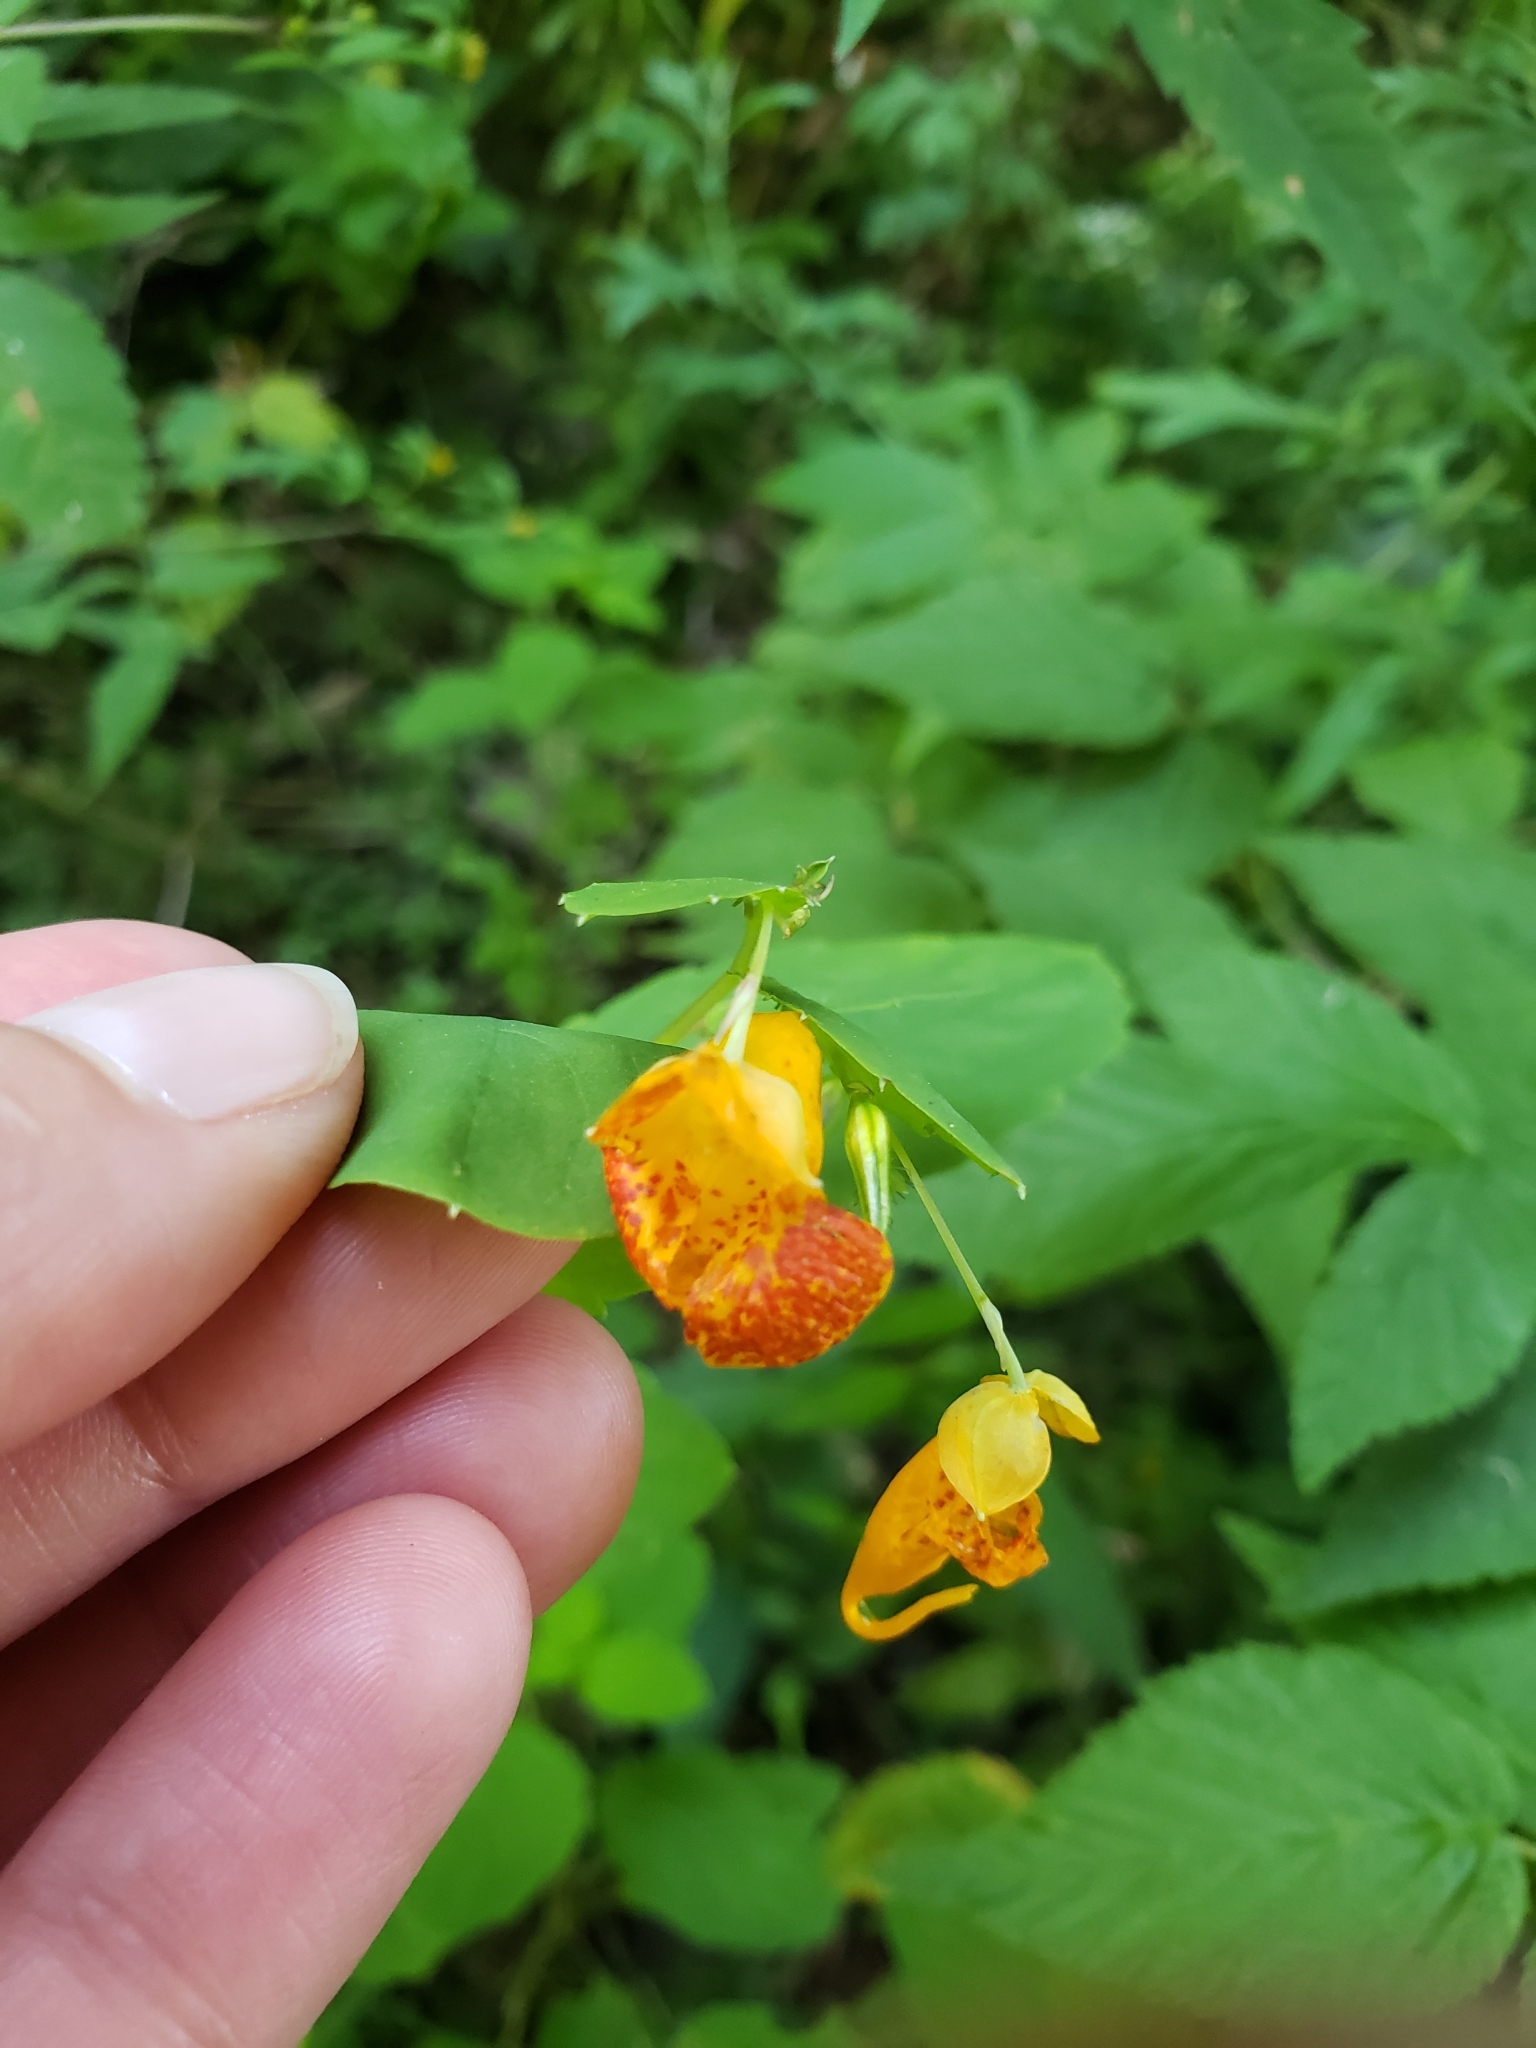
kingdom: Plantae
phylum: Tracheophyta
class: Magnoliopsida
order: Ericales
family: Balsaminaceae
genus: Impatiens
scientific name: Impatiens capensis
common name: Orange balsam
